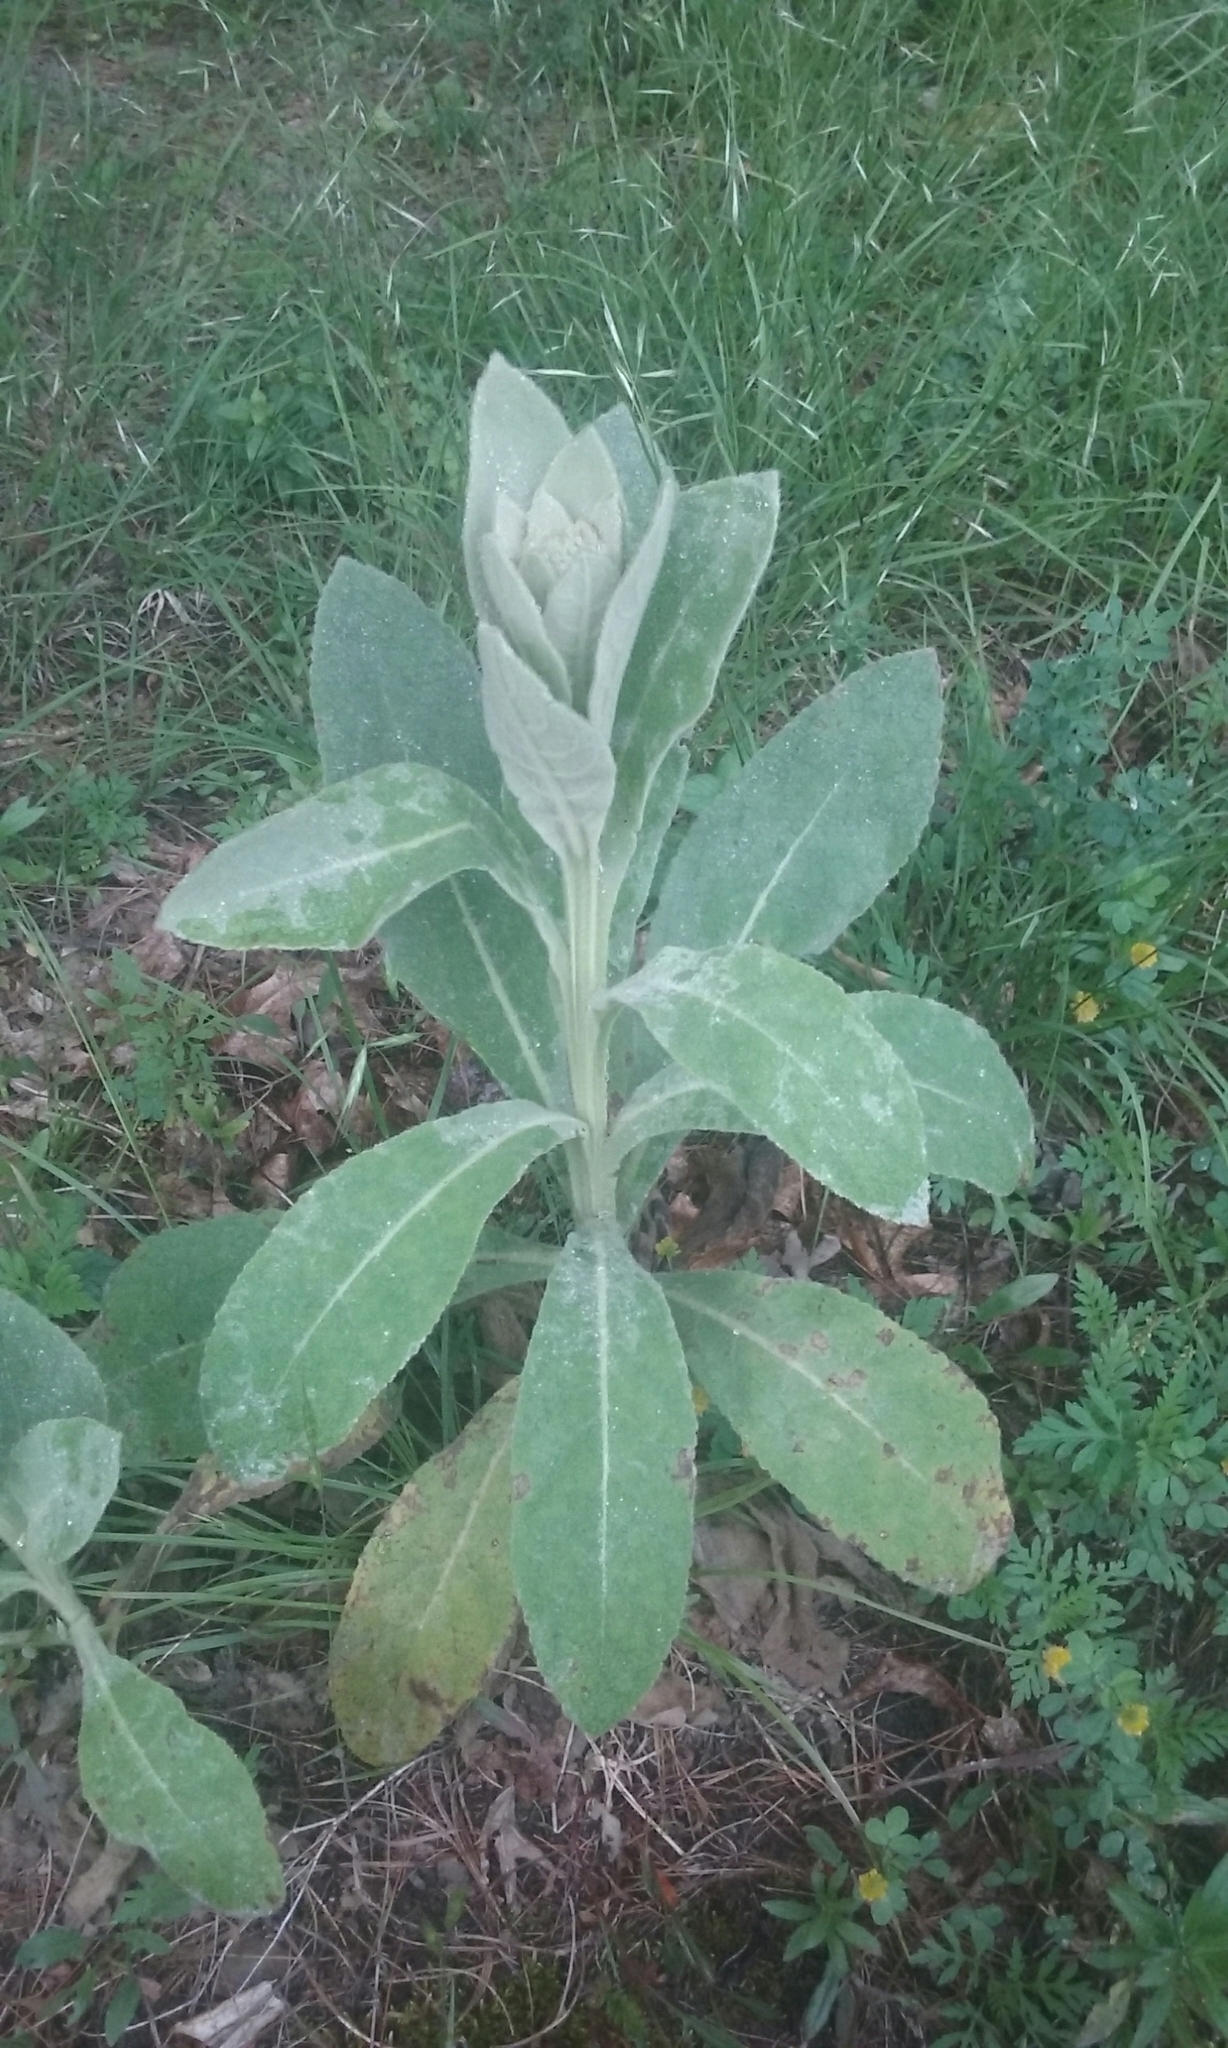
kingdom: Plantae
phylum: Tracheophyta
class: Magnoliopsida
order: Lamiales
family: Scrophulariaceae
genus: Verbascum
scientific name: Verbascum thapsus
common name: Common mullein
